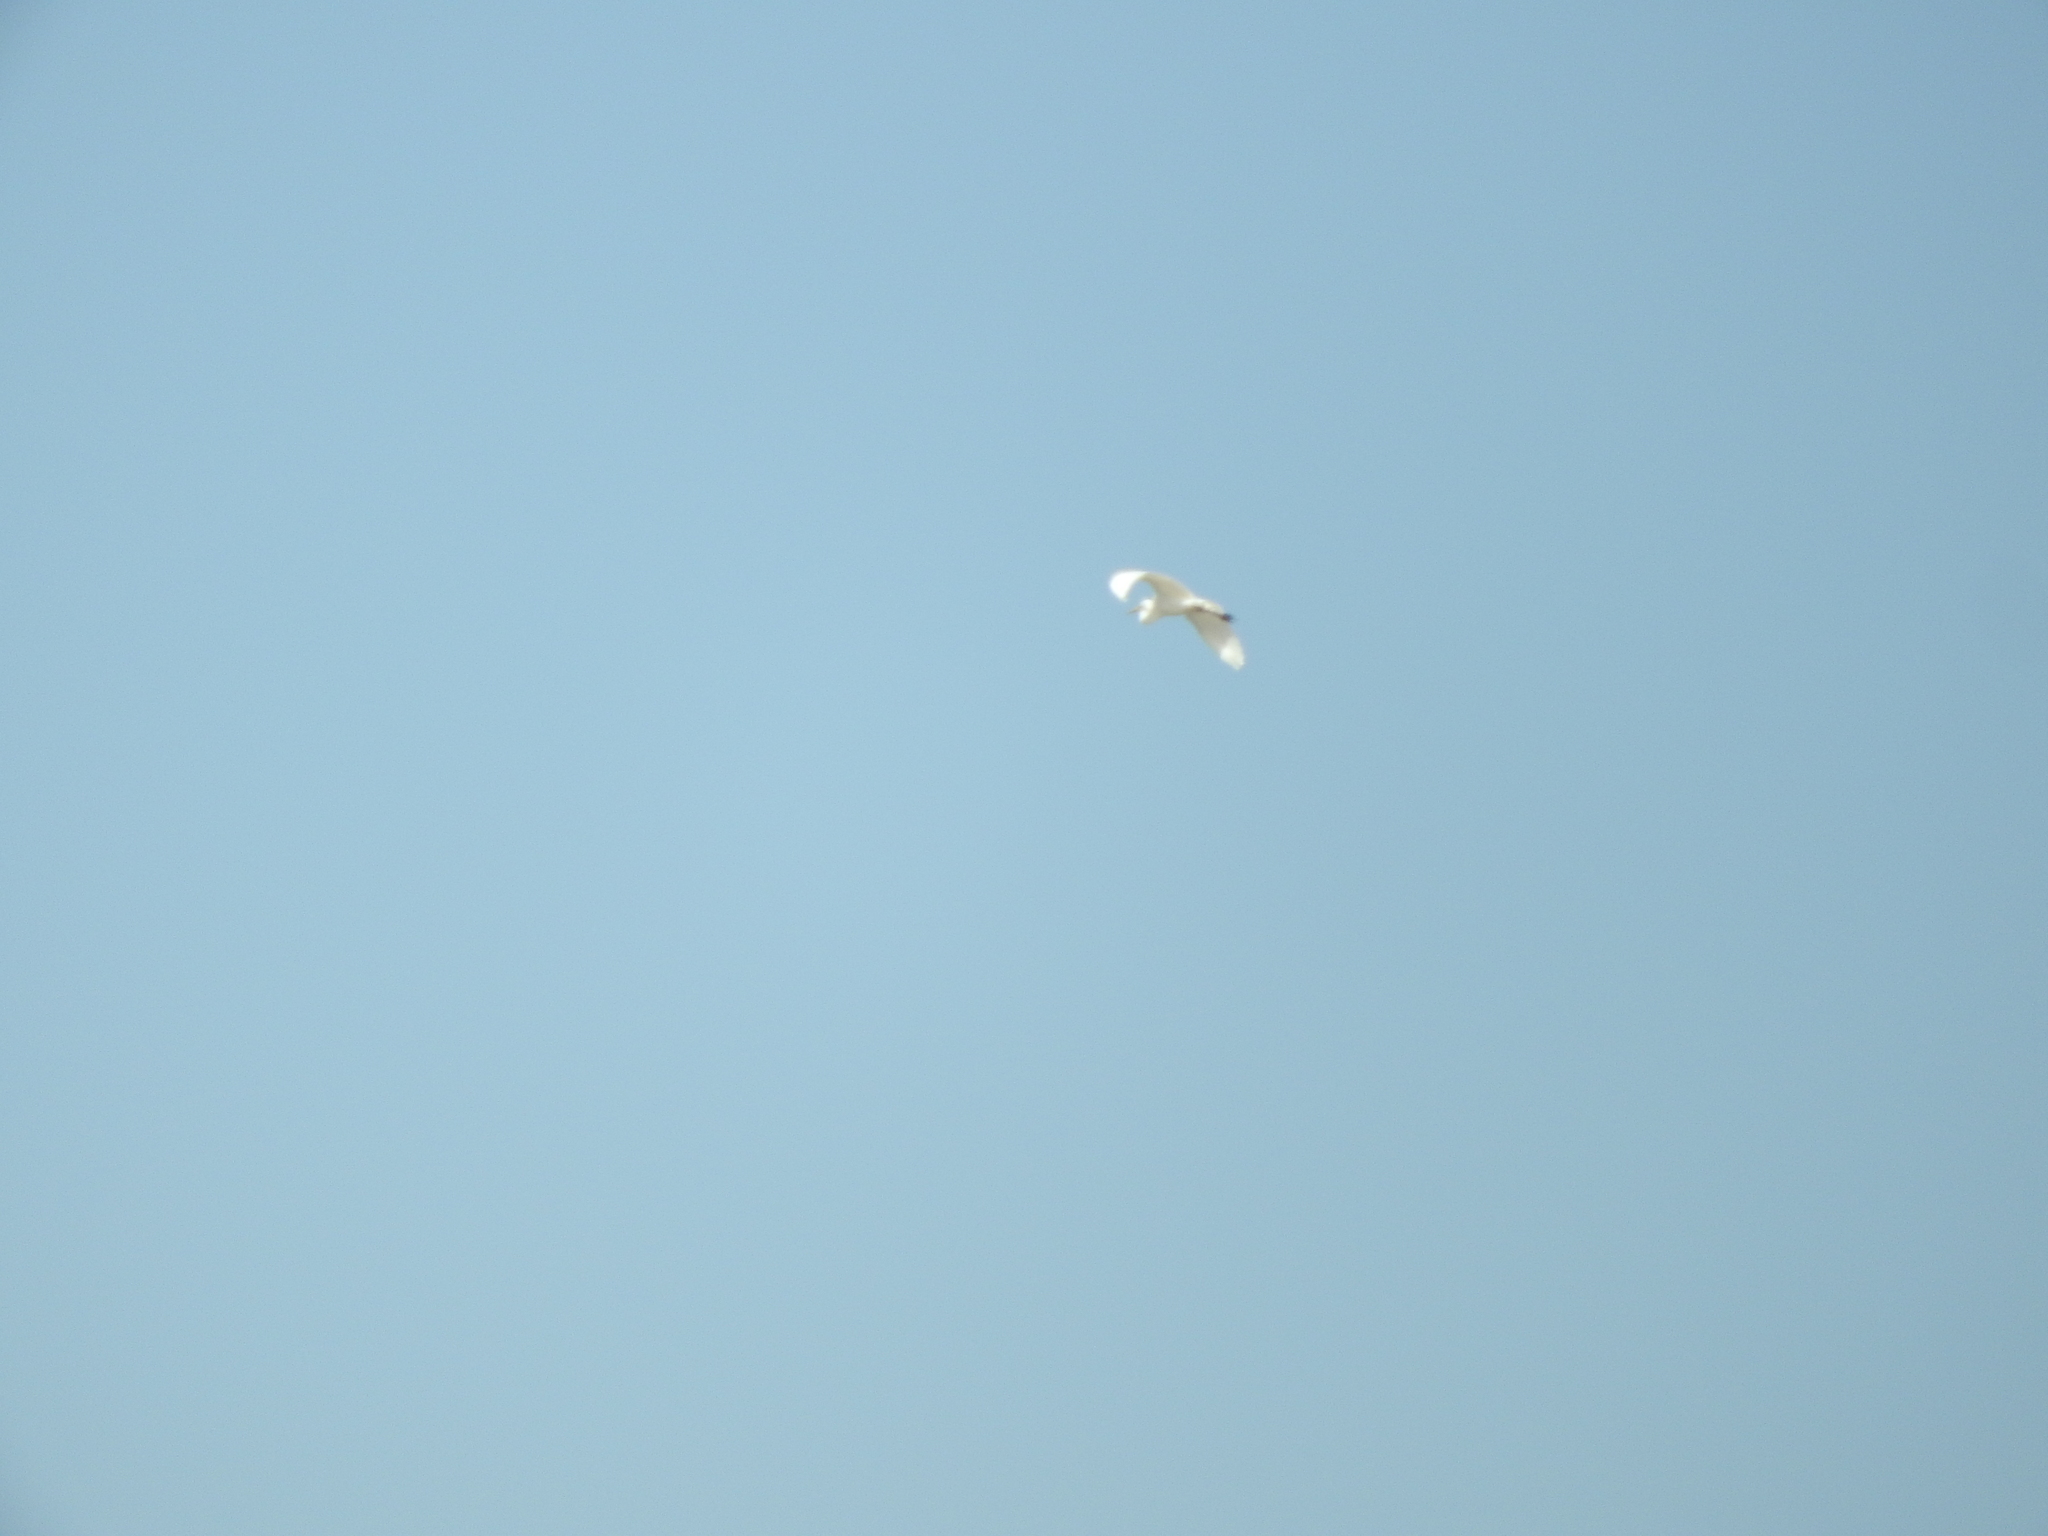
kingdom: Animalia
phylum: Chordata
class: Aves
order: Pelecaniformes
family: Ardeidae
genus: Bubulcus
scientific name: Bubulcus ibis
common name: Cattle egret
